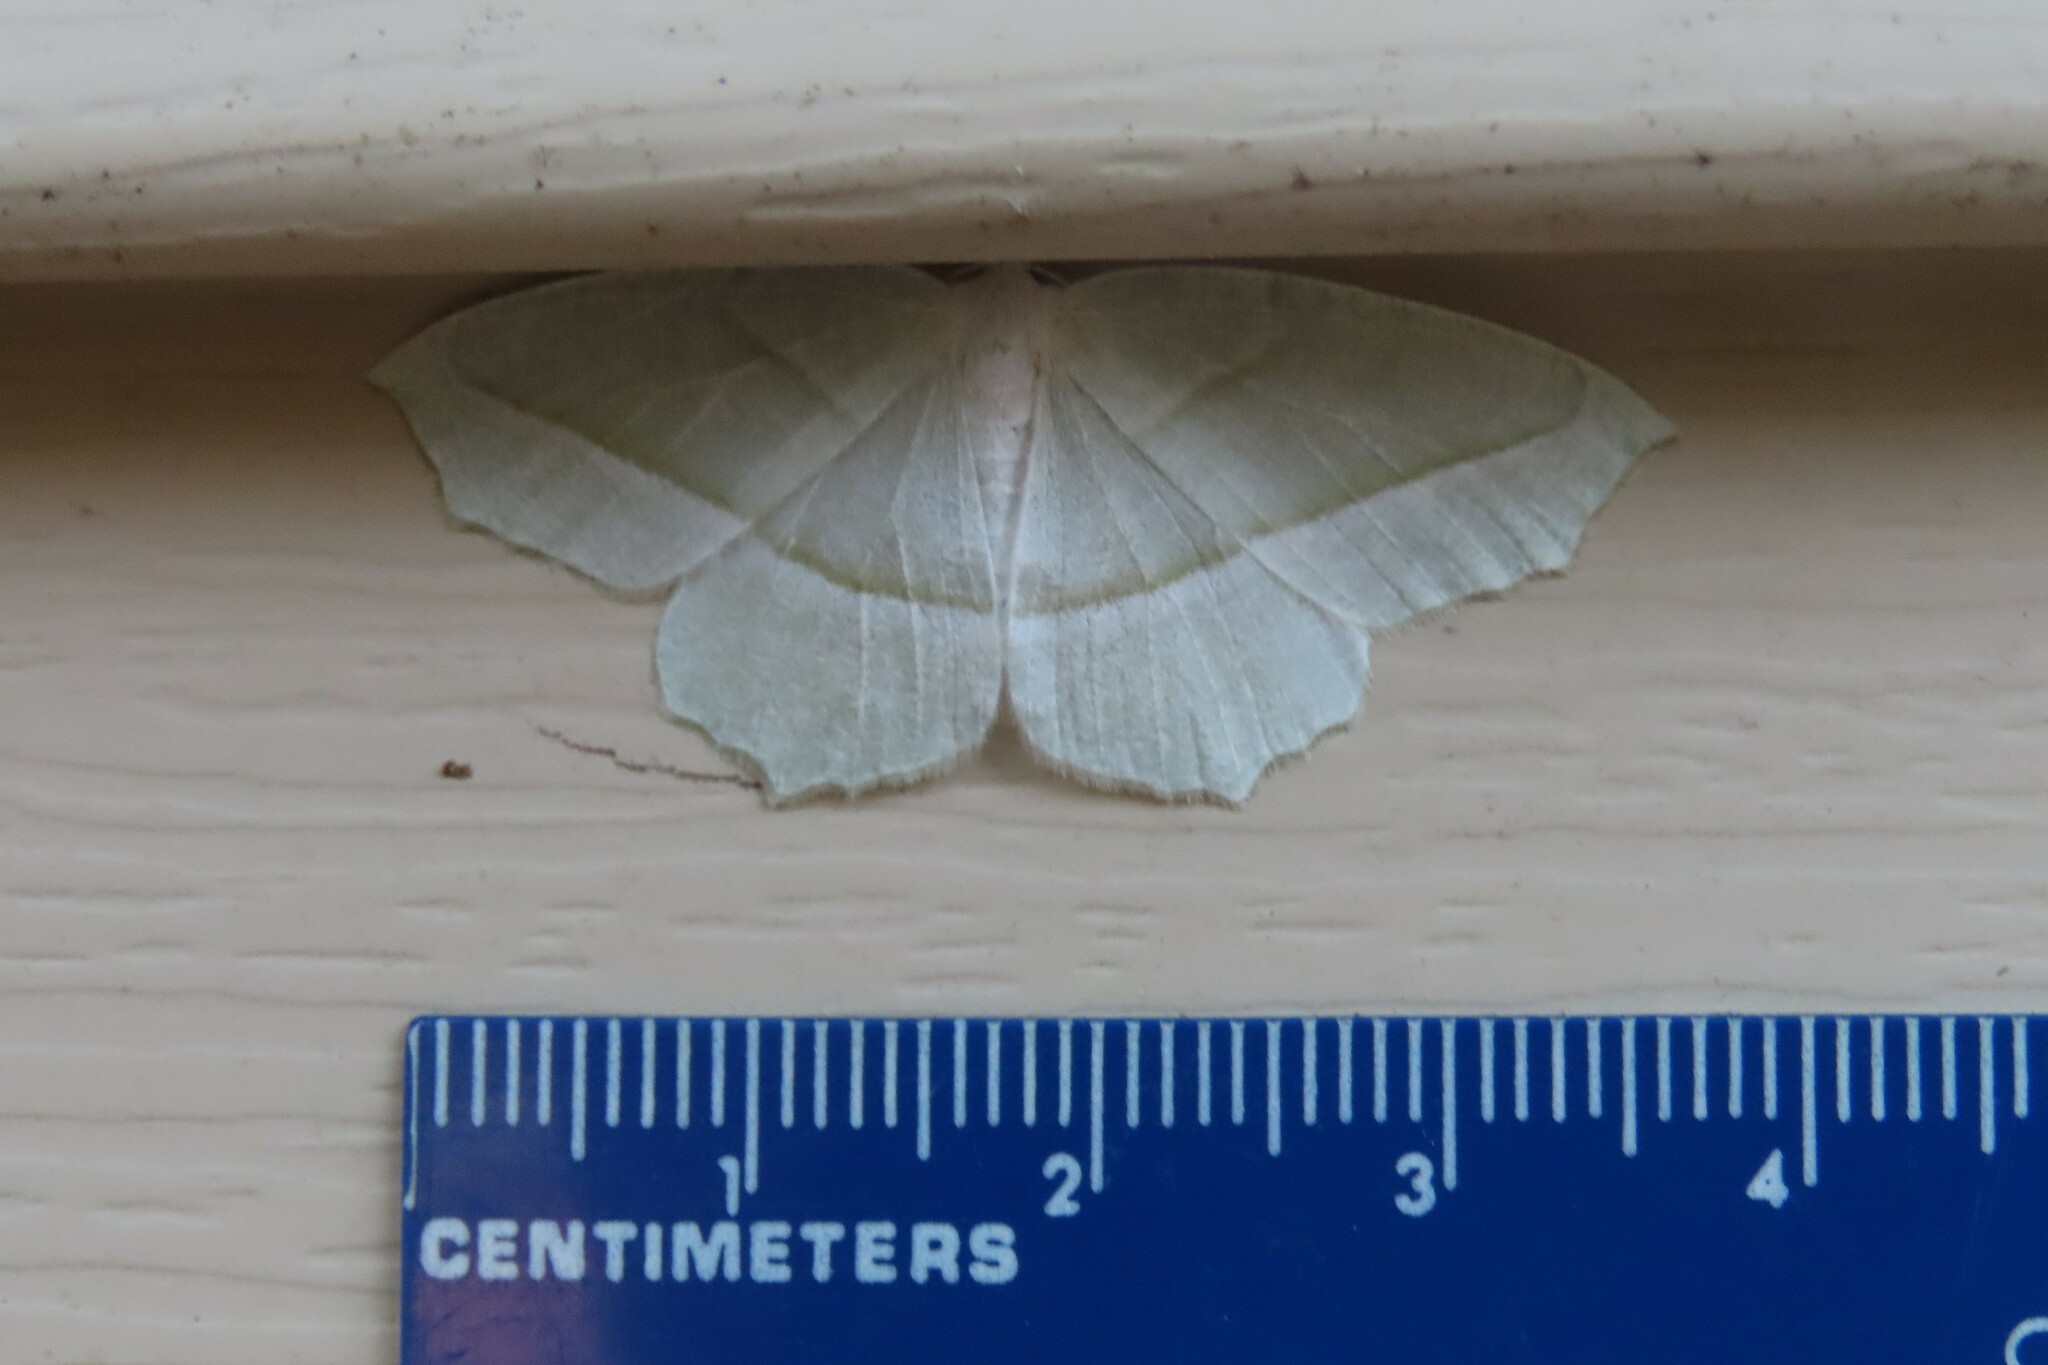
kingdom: Animalia
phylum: Arthropoda
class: Insecta
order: Lepidoptera
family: Geometridae
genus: Campaea
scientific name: Campaea perlata
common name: Fringed looper
